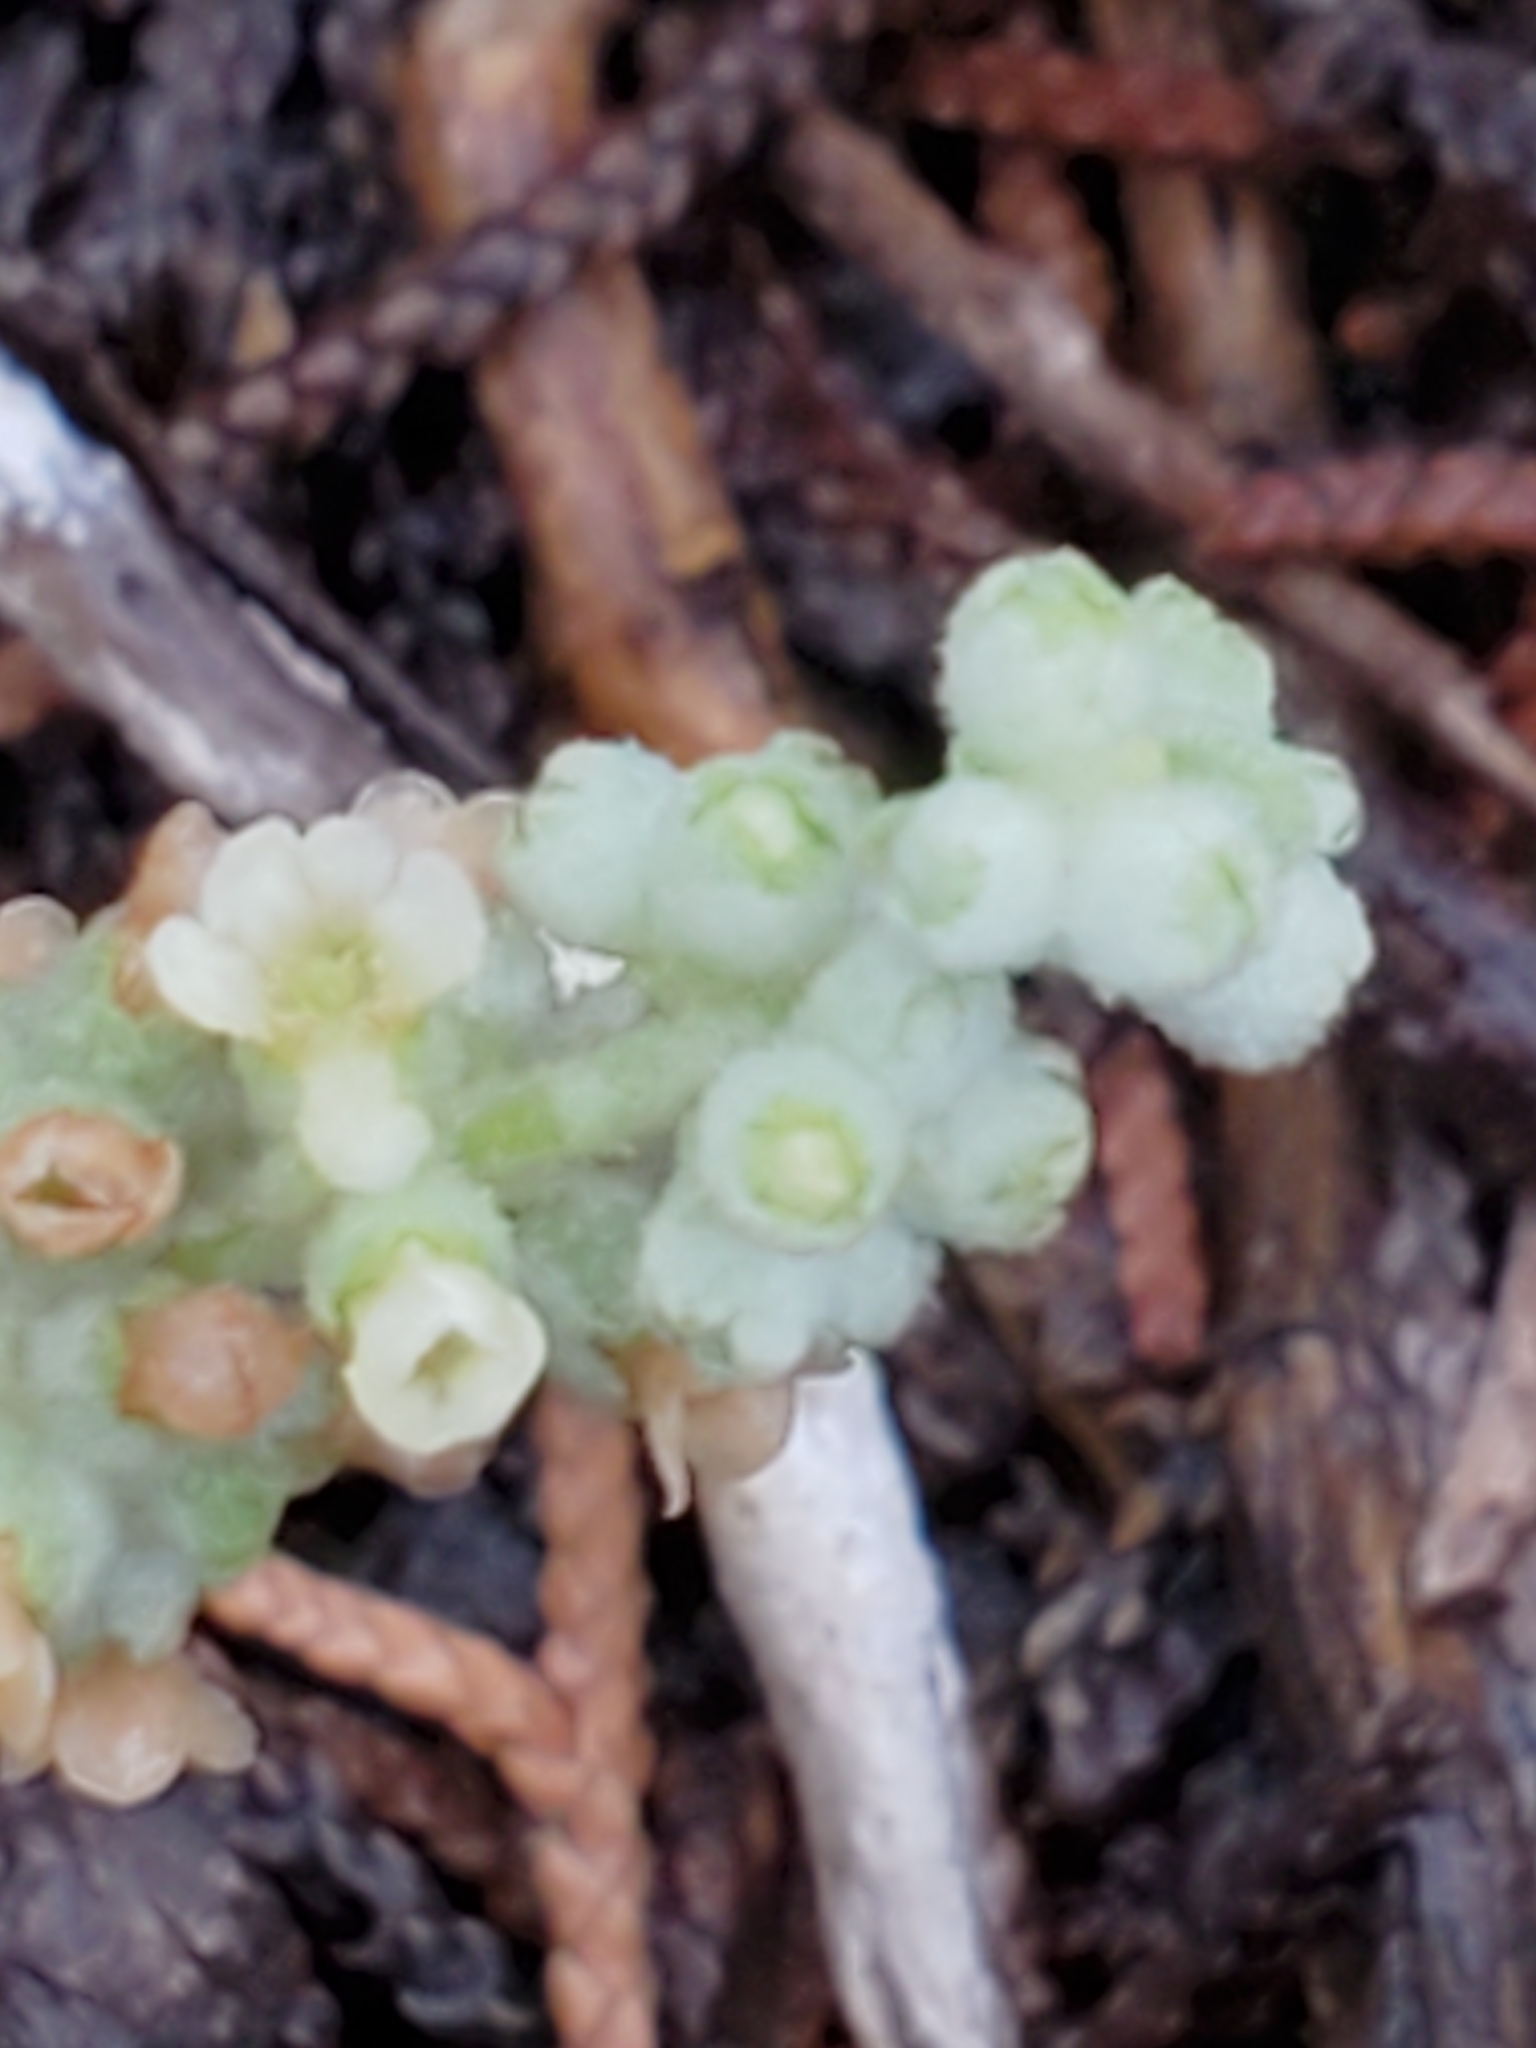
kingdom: Plantae
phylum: Tracheophyta
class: Magnoliopsida
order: Lamiales
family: Scrophulariaceae
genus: Buddleja
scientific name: Buddleja racemosa
